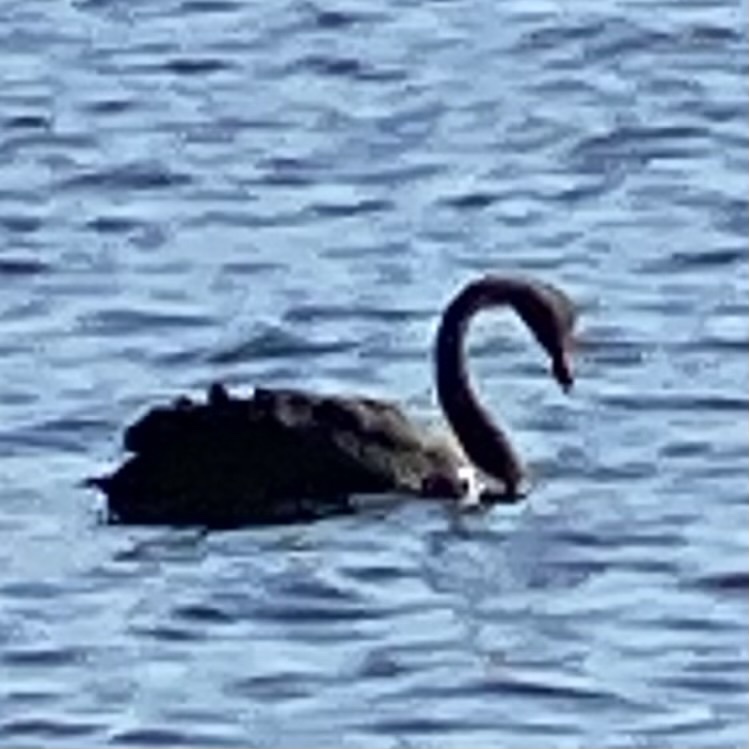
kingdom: Animalia
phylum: Chordata
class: Aves
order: Anseriformes
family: Anatidae
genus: Cygnus
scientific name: Cygnus atratus
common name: Black swan
